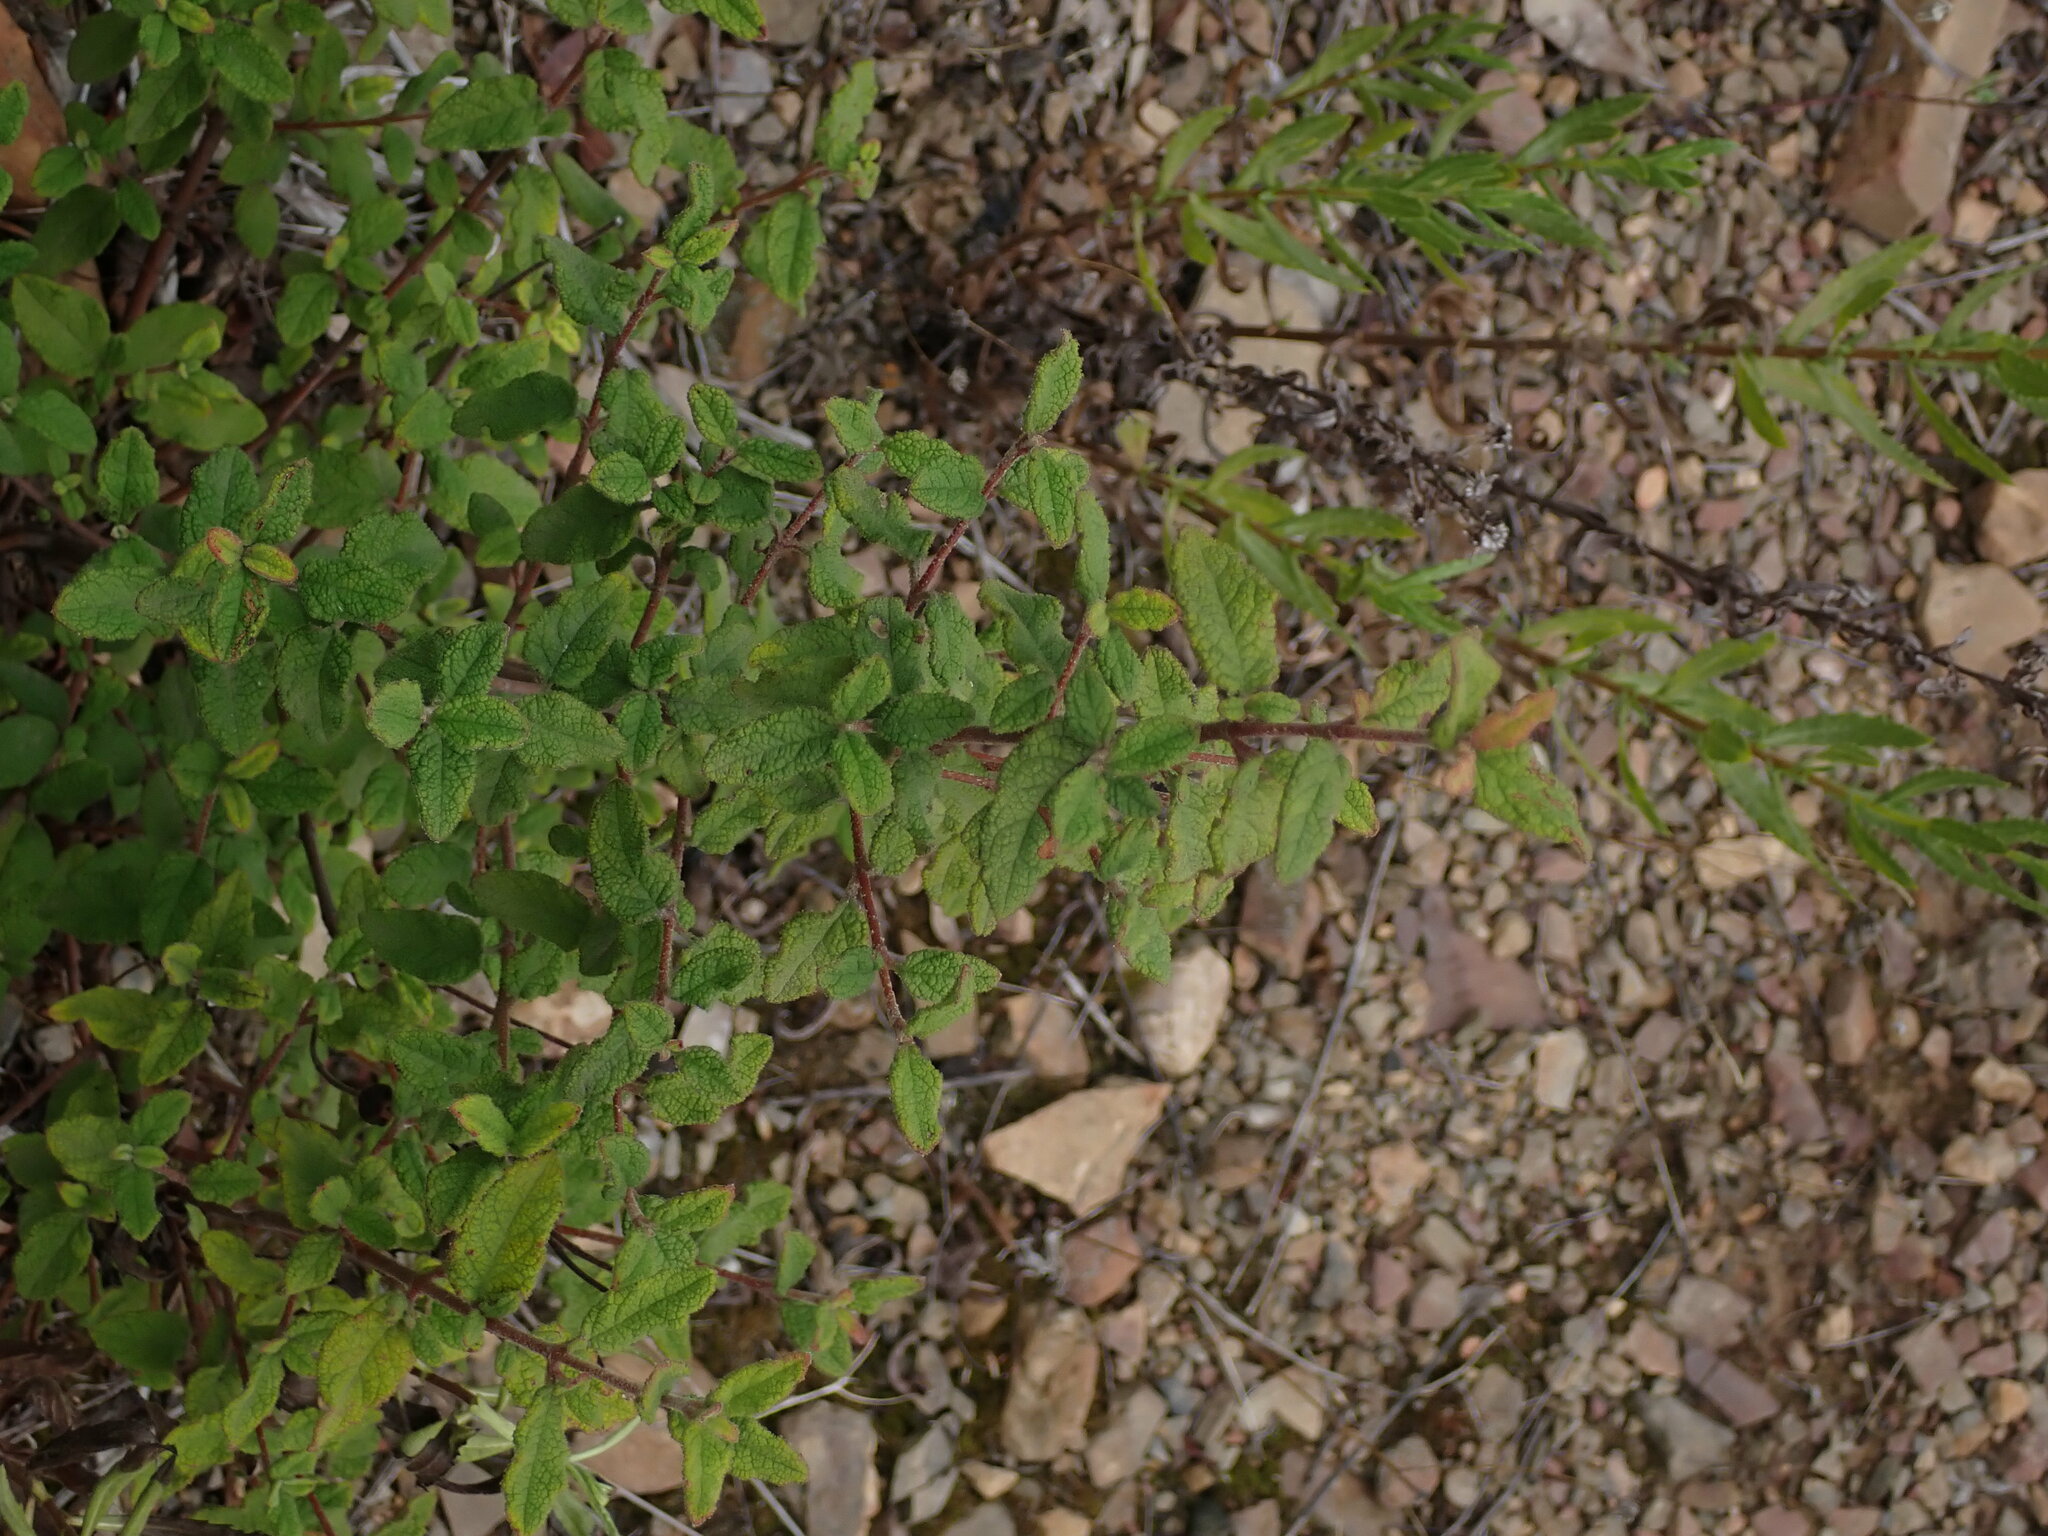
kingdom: Plantae
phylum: Tracheophyta
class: Magnoliopsida
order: Malvales
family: Cistaceae
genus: Cistus
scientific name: Cistus salviifolius
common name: Salvia cistus
